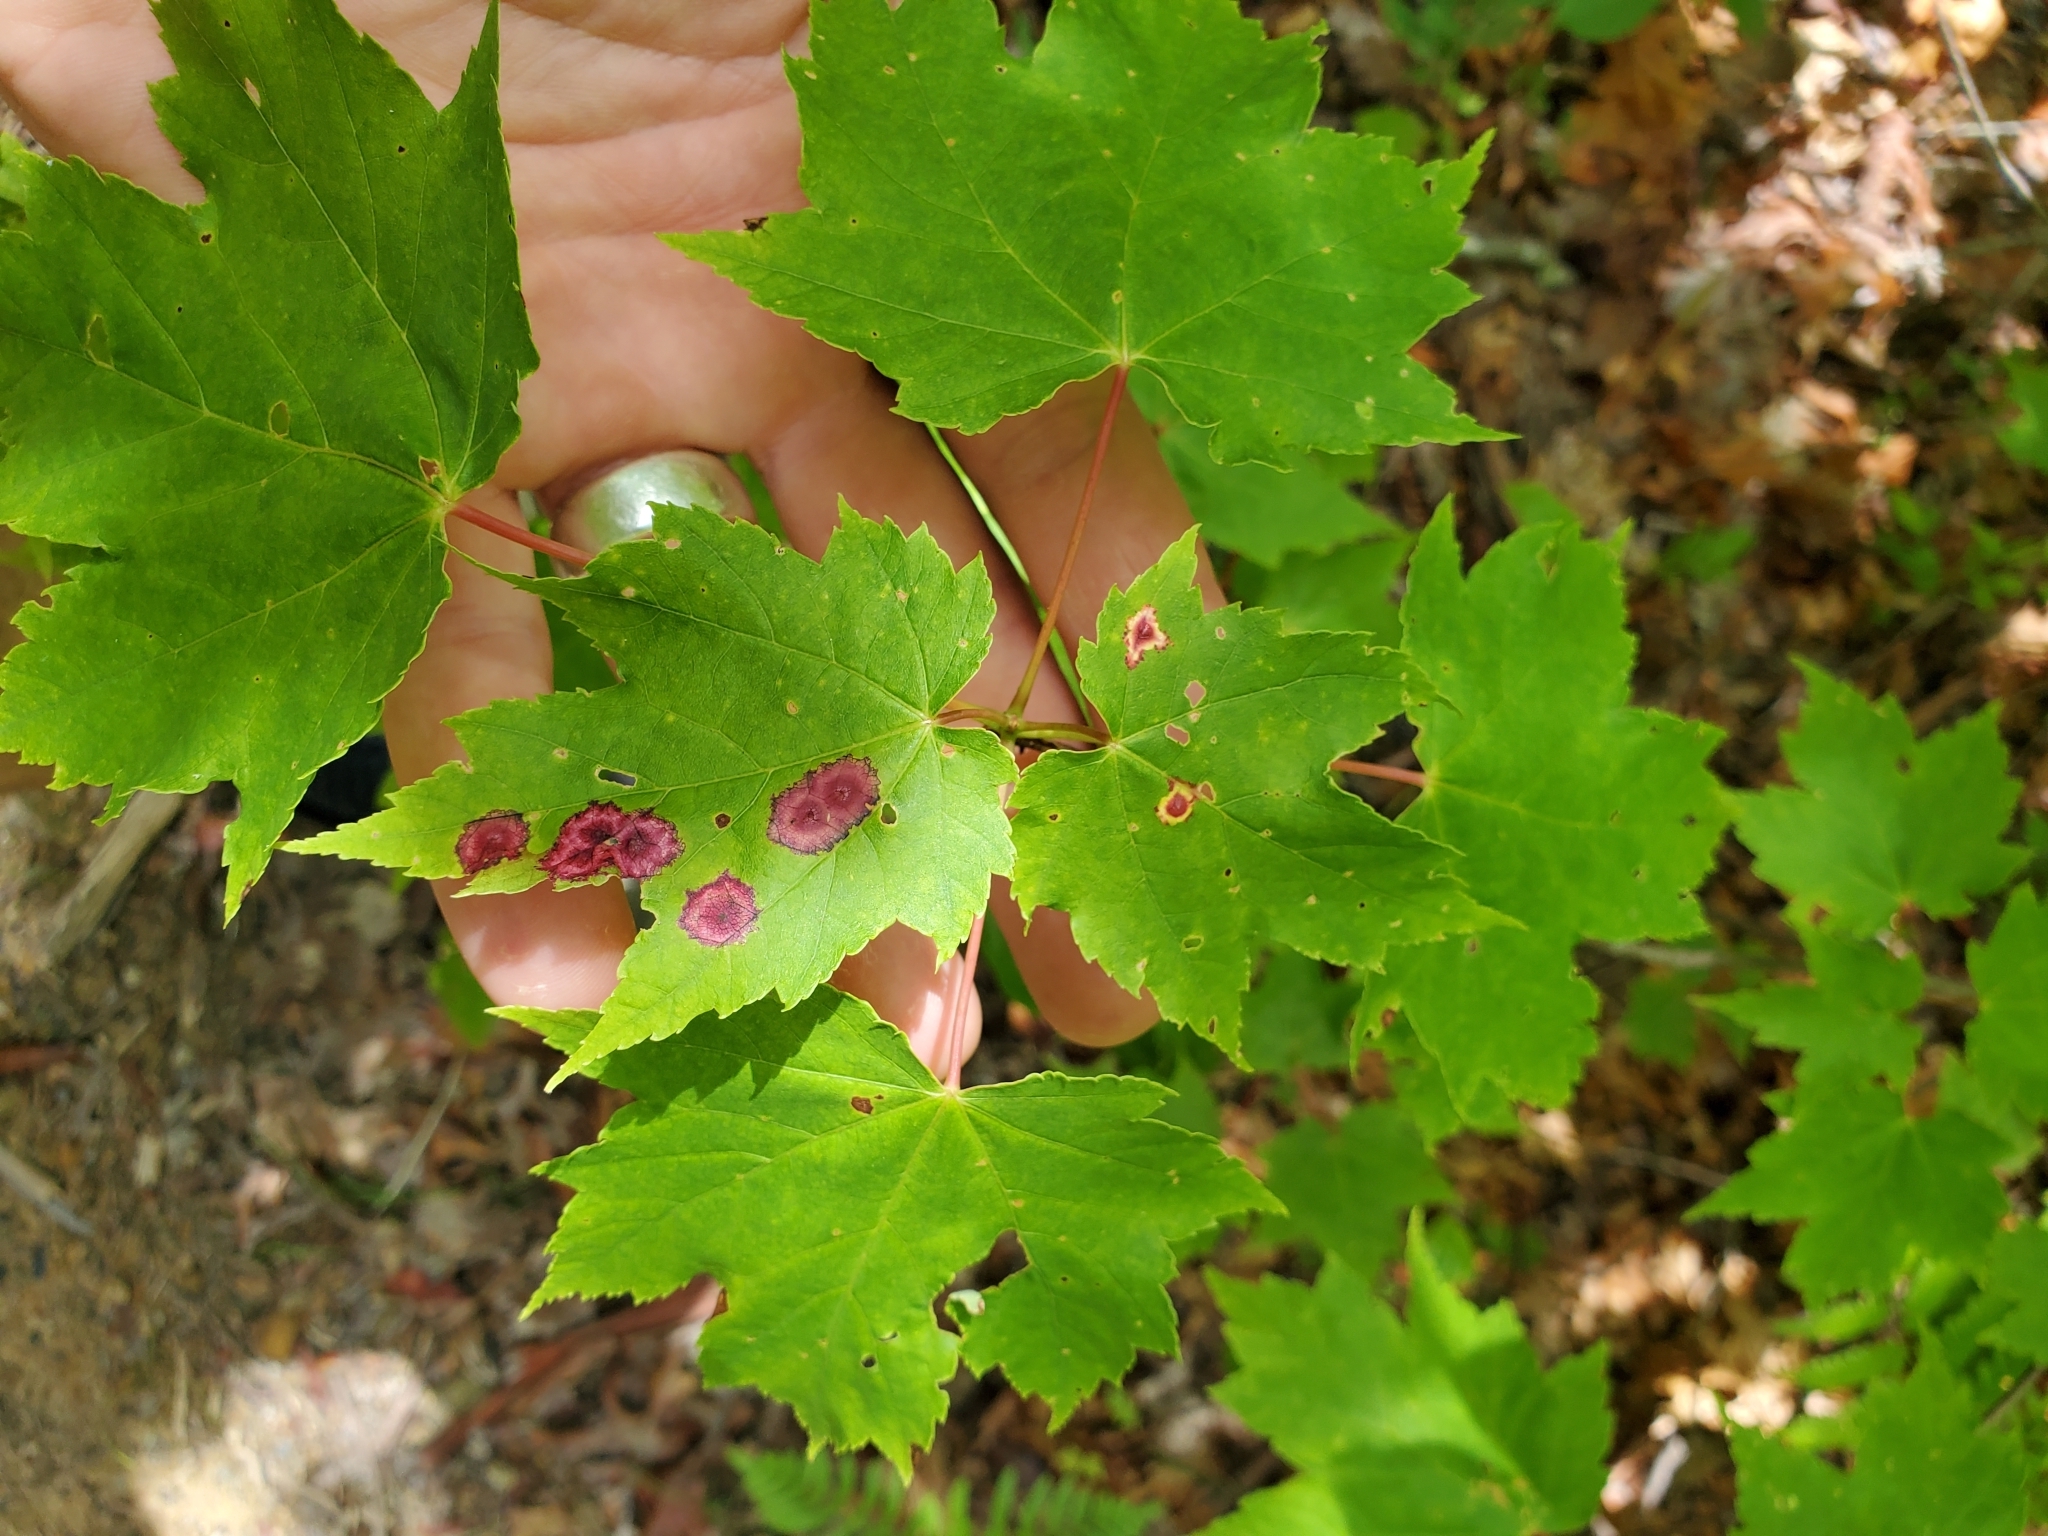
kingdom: Animalia
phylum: Arthropoda
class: Insecta
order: Diptera
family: Cecidomyiidae
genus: Acericecis
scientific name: Acericecis ocellaris
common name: Ocellate gall midge
